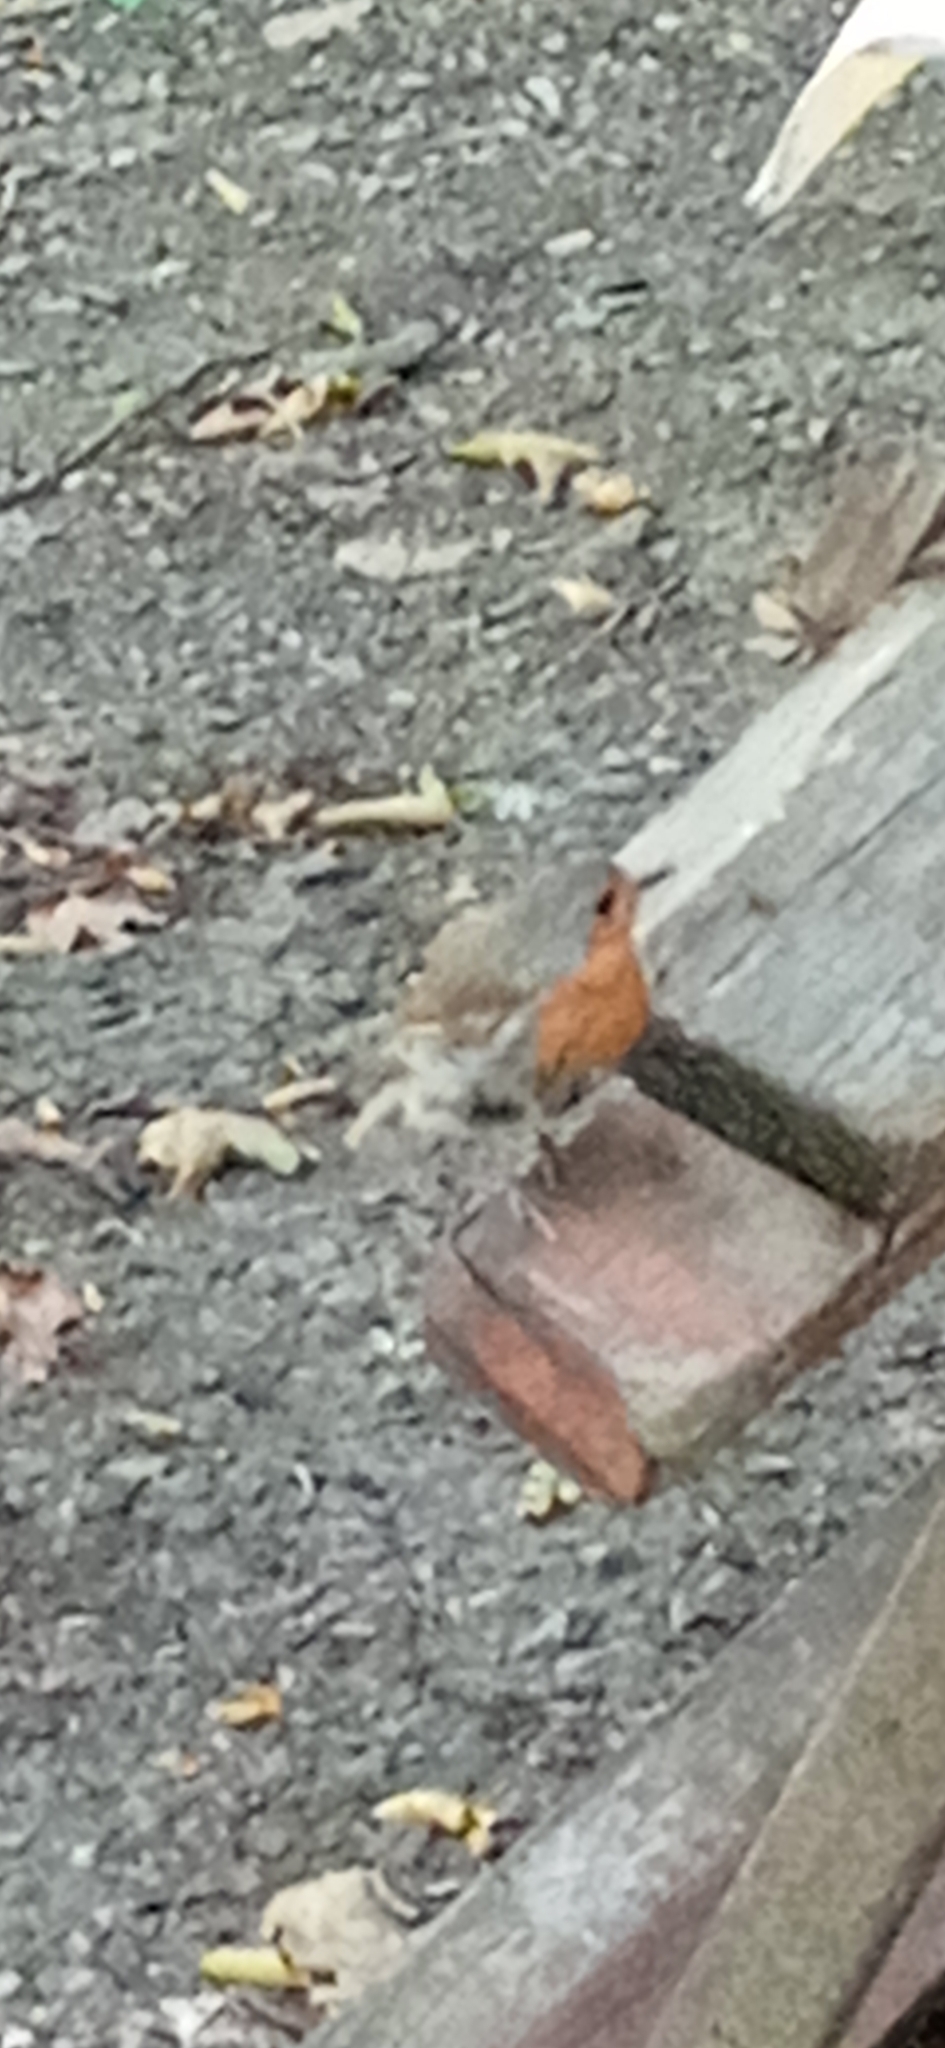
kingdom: Animalia
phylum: Chordata
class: Aves
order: Passeriformes
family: Muscicapidae
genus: Erithacus
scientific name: Erithacus rubecula
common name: European robin
